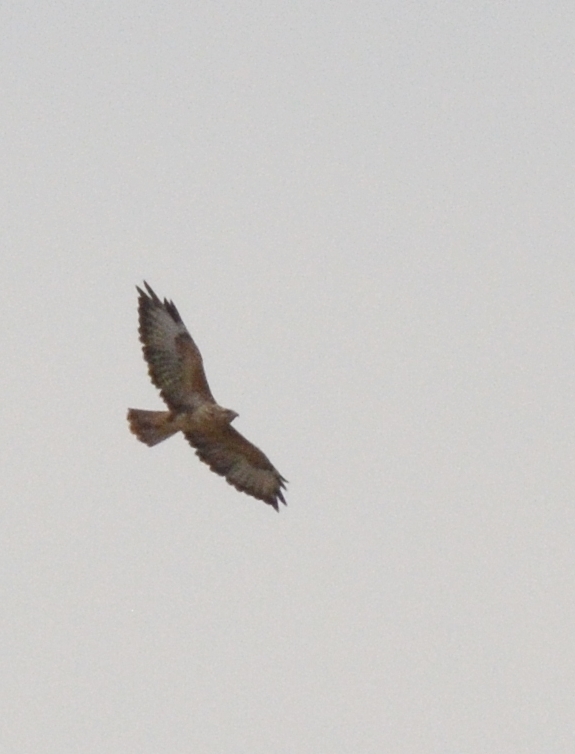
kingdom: Animalia
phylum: Chordata
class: Aves
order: Accipitriformes
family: Accipitridae
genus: Buteo
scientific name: Buteo buteo
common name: Common buzzard
